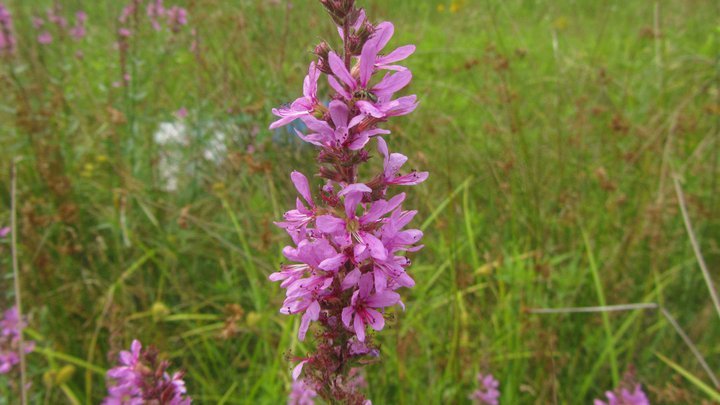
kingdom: Plantae
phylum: Tracheophyta
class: Magnoliopsida
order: Myrtales
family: Lythraceae
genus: Lythrum
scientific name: Lythrum salicaria
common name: Purple loosestrife
